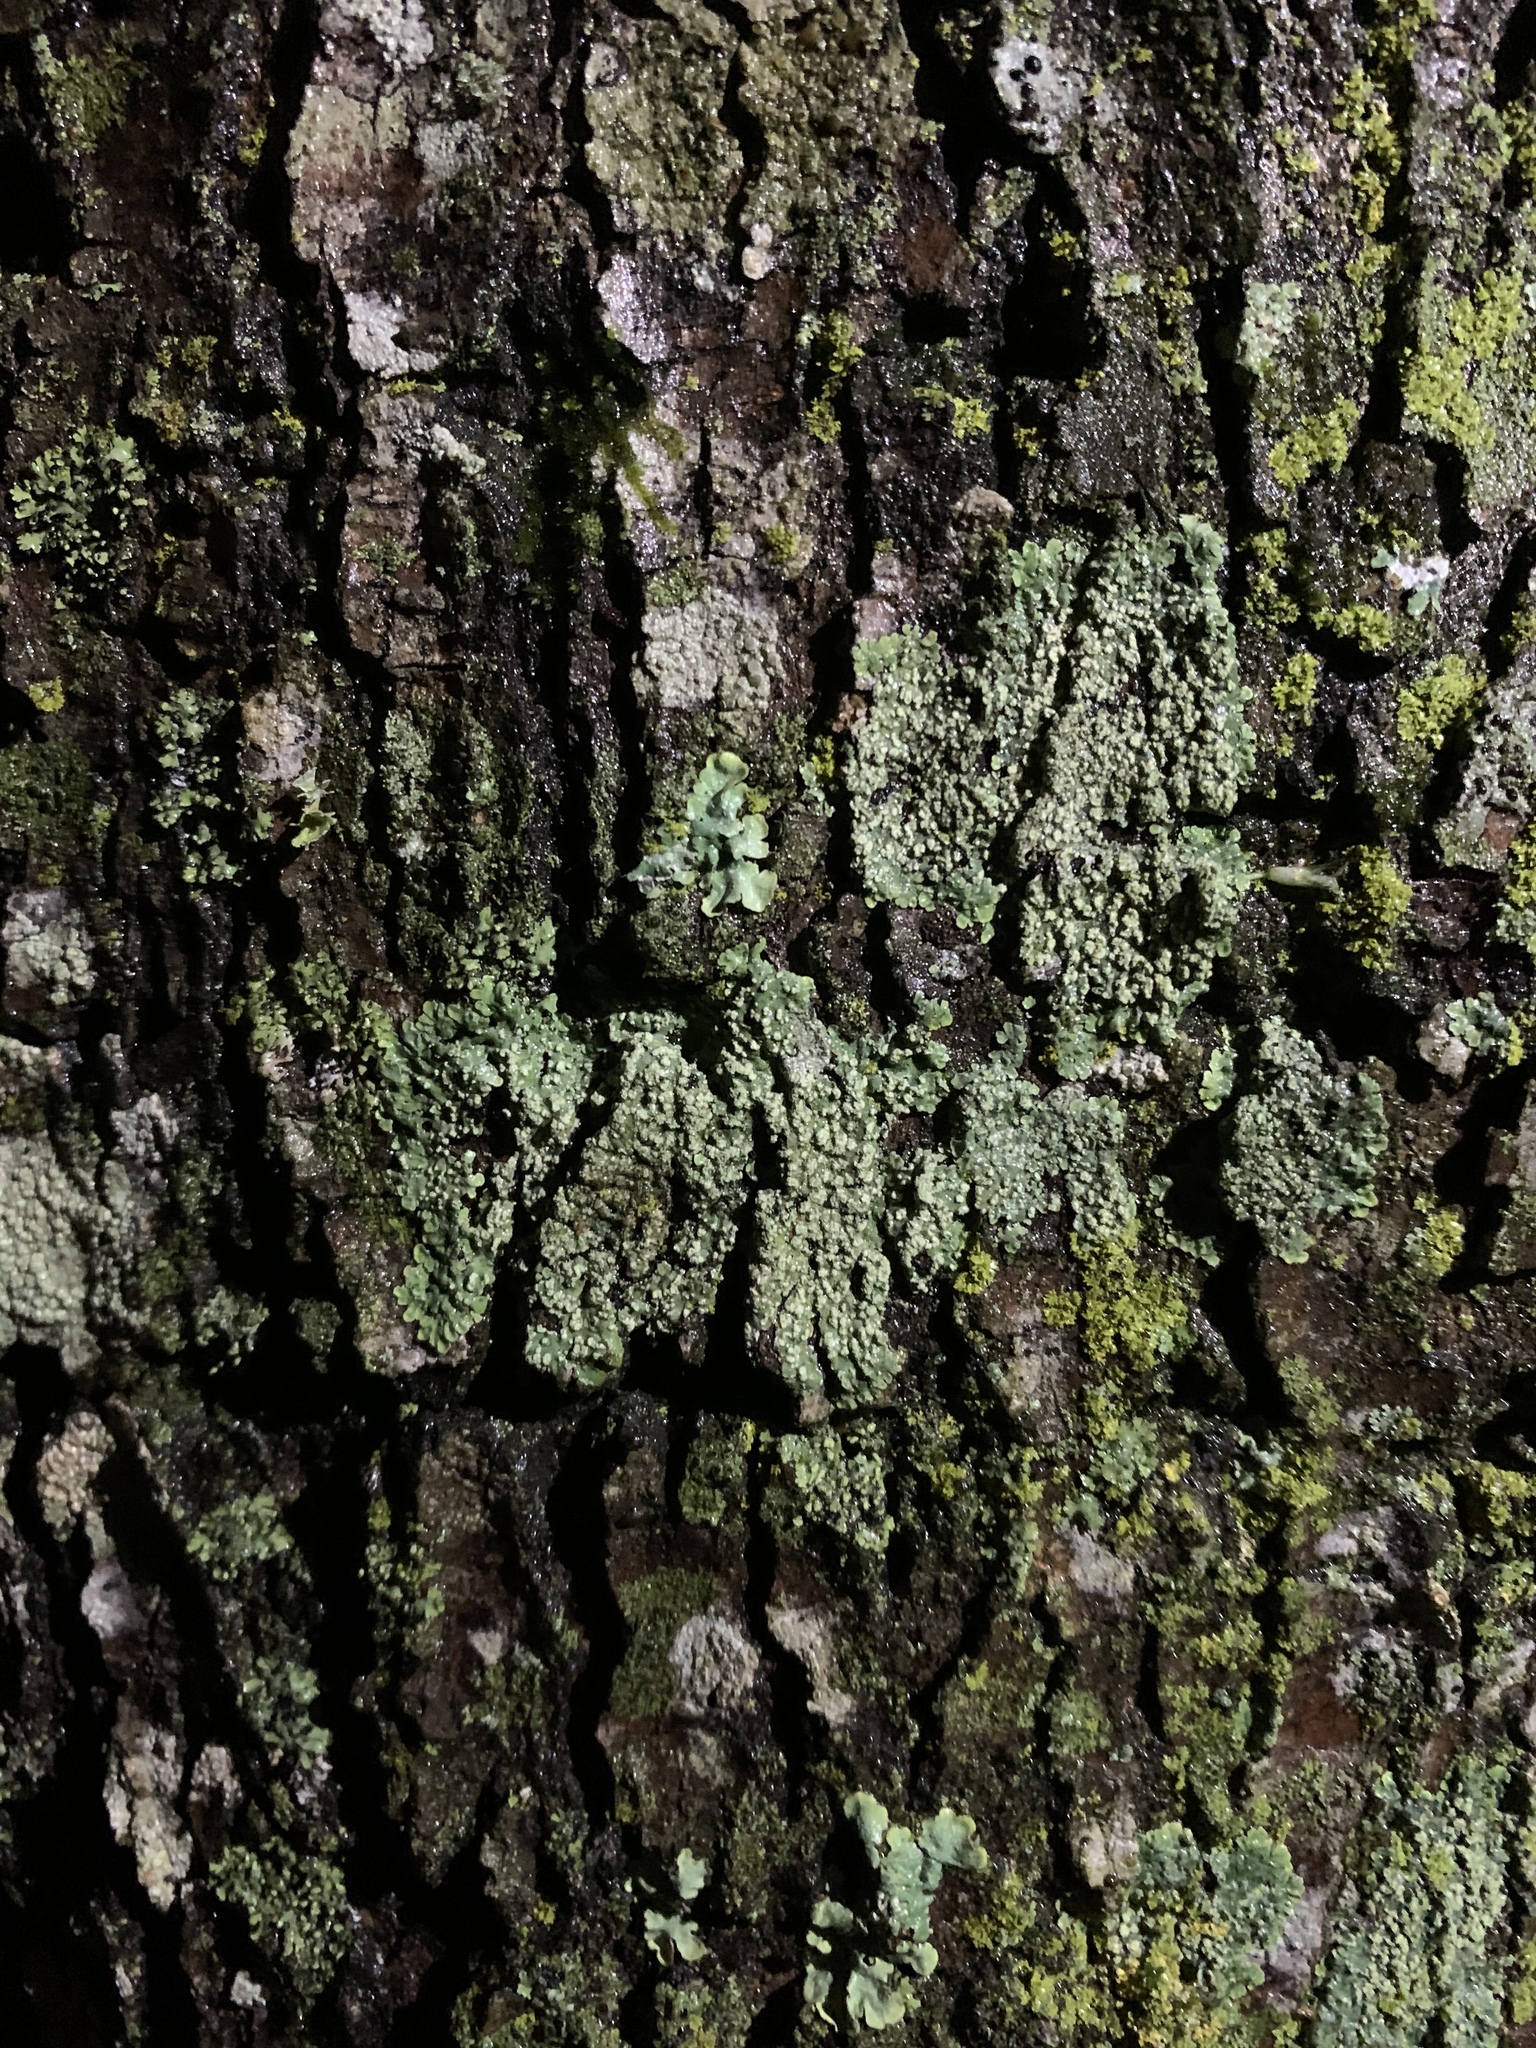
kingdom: Fungi
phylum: Ascomycota
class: Lecanoromycetes
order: Caliciales
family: Caliciaceae
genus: Pyxine
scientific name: Pyxine subcinerea
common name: Mustard lichen
